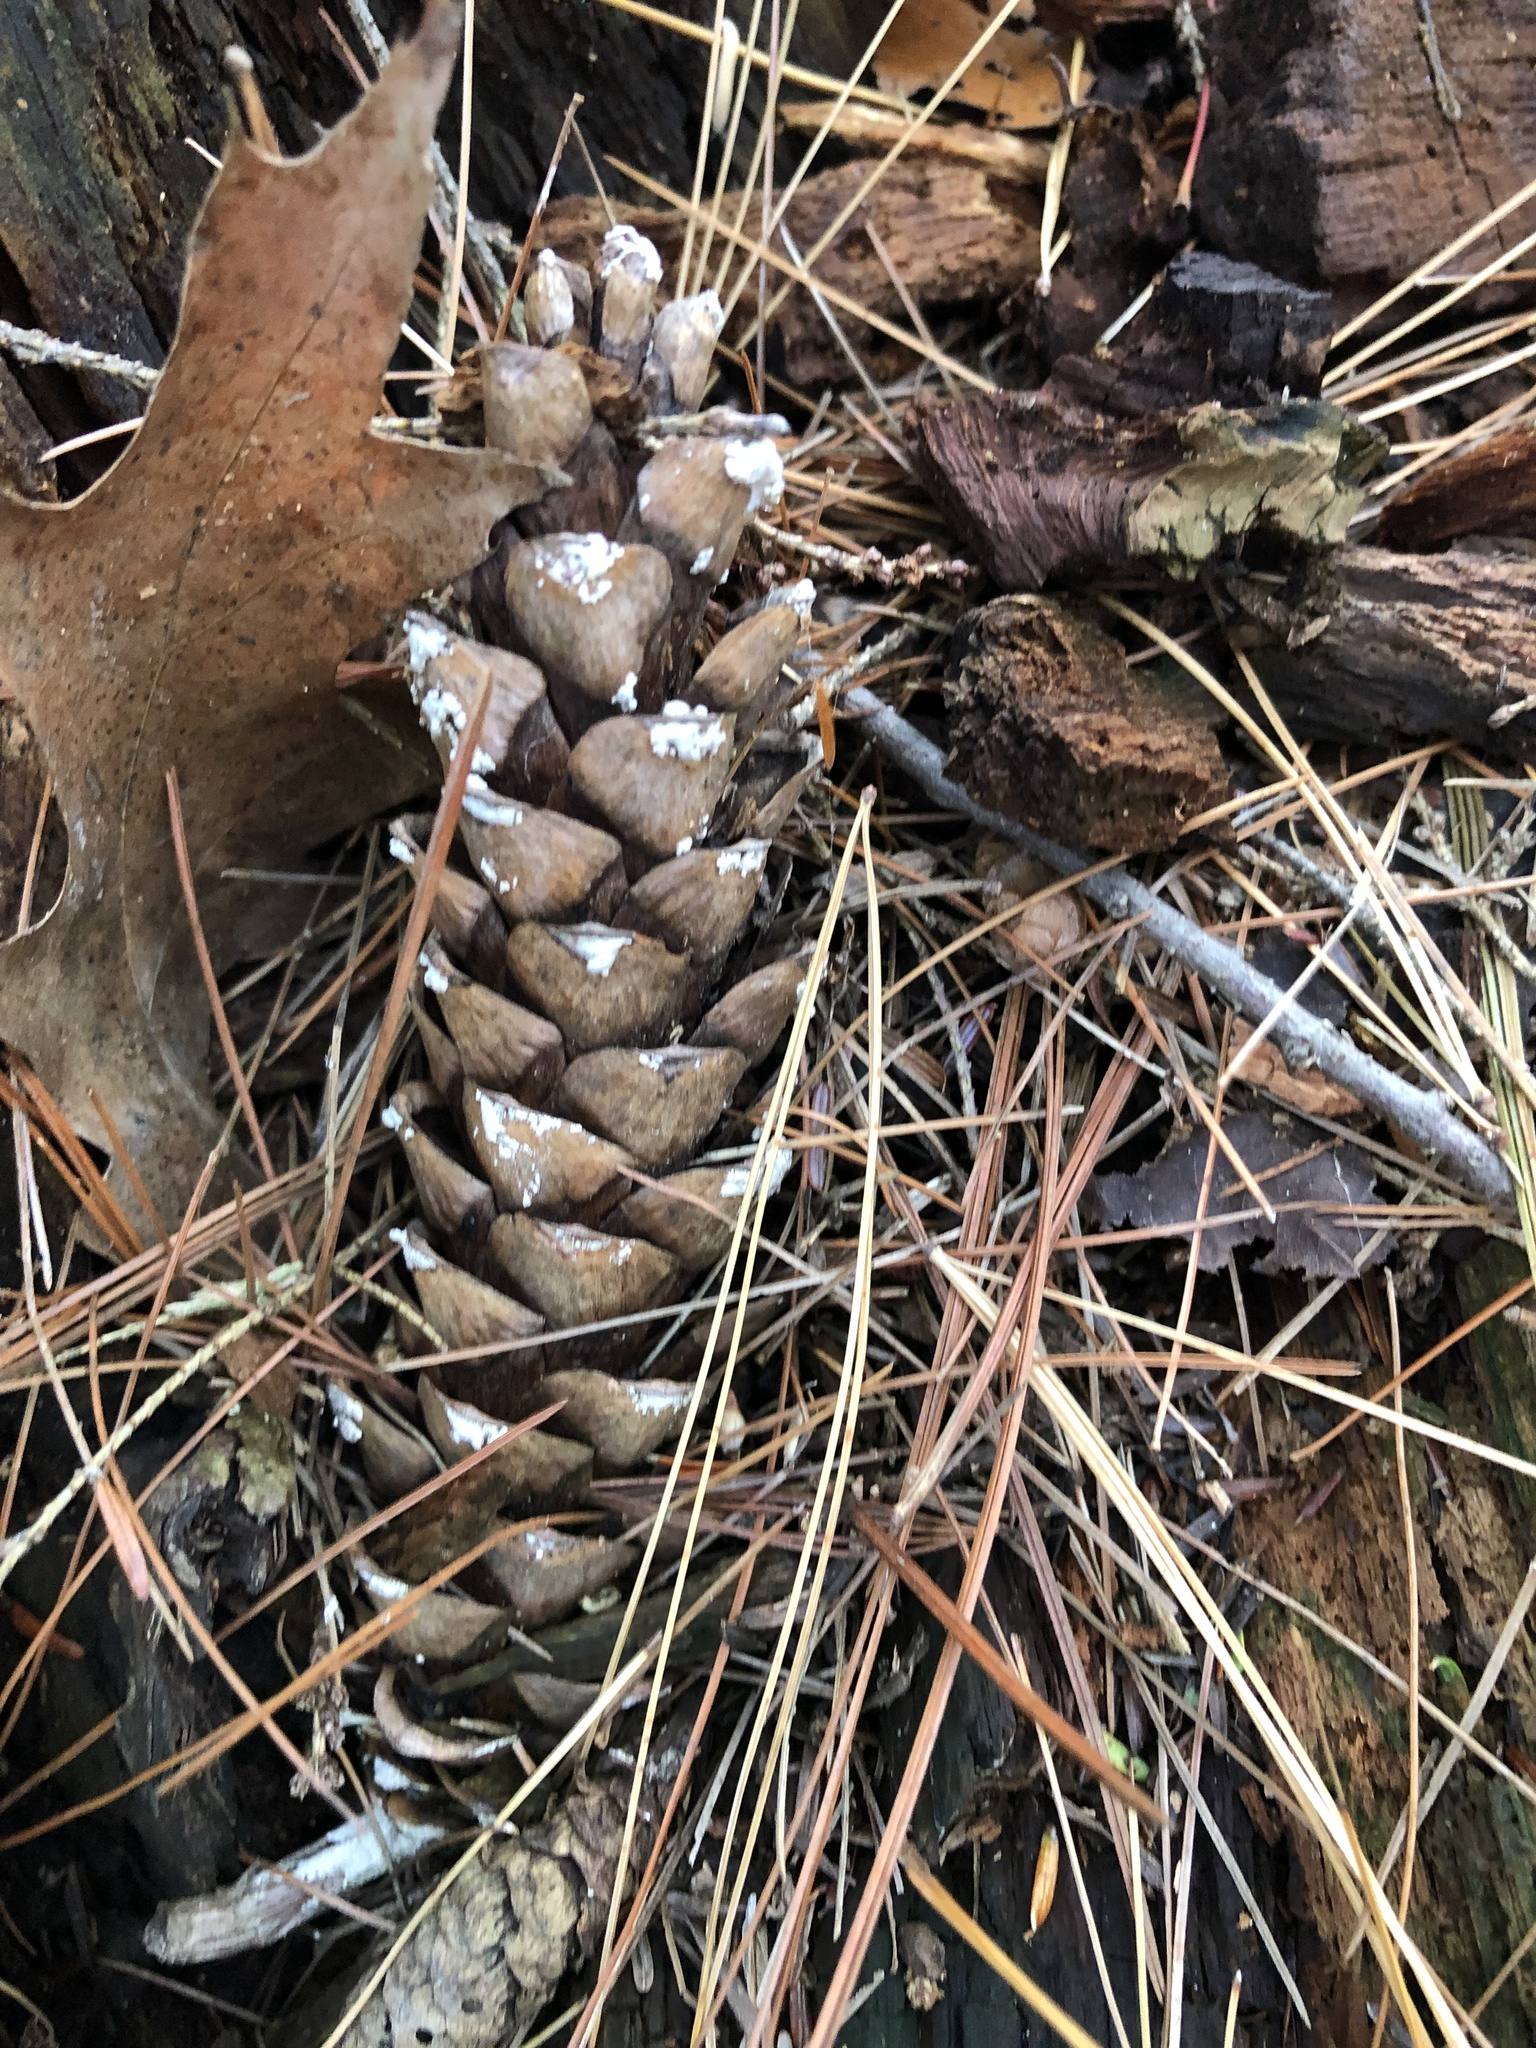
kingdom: Plantae
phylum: Tracheophyta
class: Pinopsida
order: Pinales
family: Pinaceae
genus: Pinus
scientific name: Pinus strobus
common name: Weymouth pine
